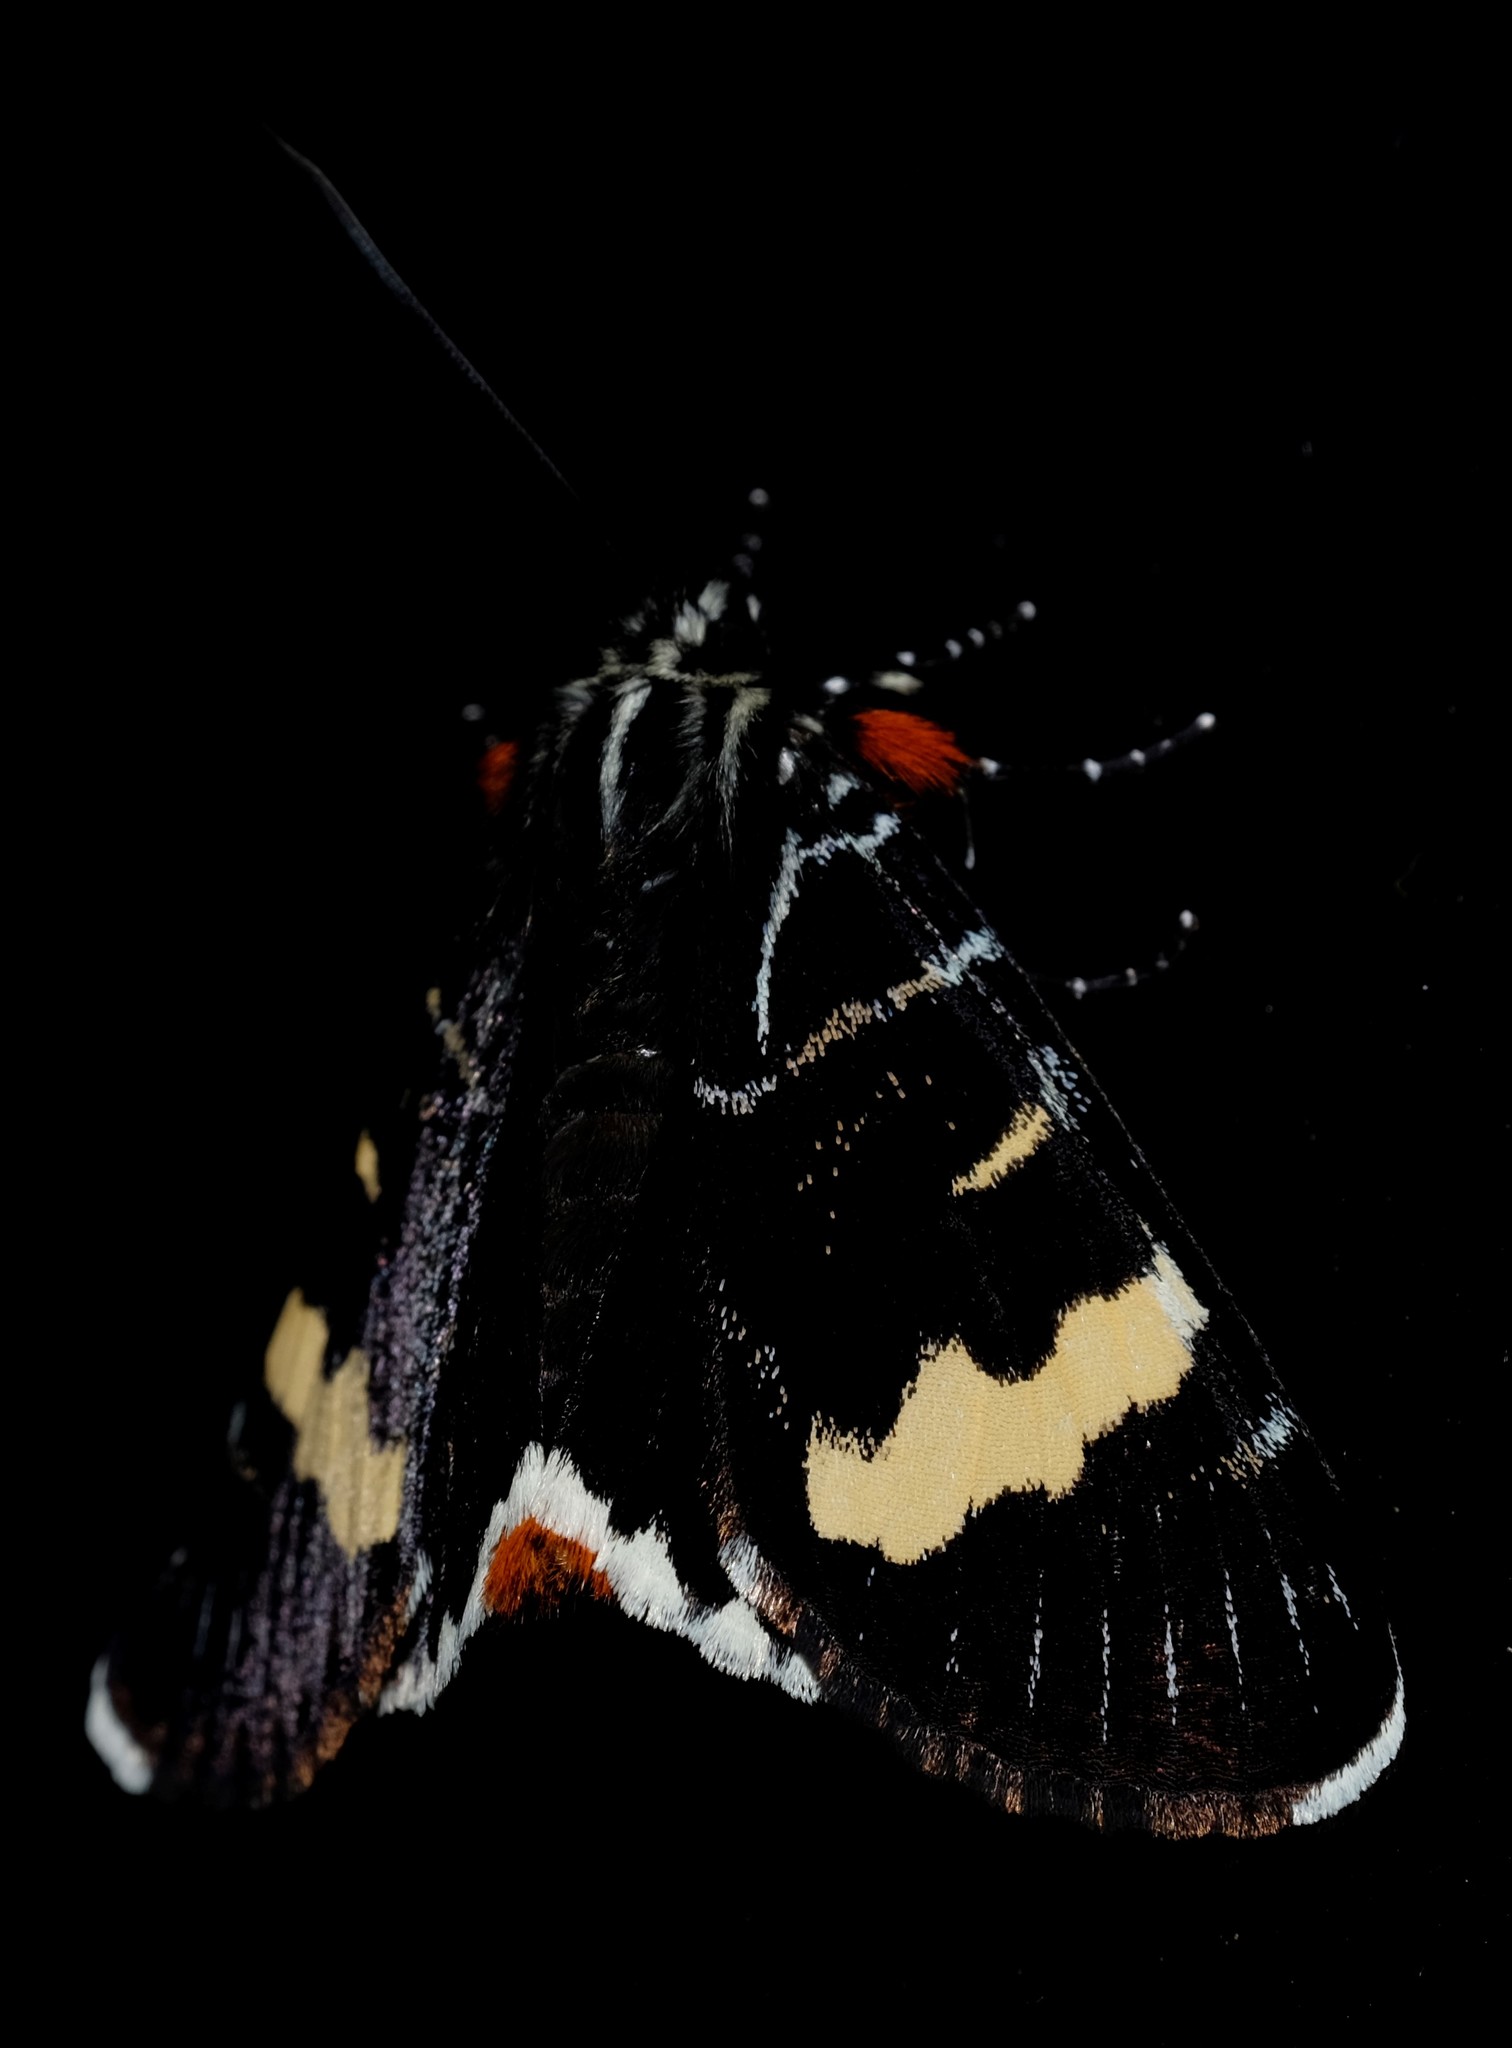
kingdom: Animalia
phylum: Arthropoda
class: Insecta
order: Lepidoptera
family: Noctuidae
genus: Phalaenoides
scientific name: Phalaenoides glycinae
